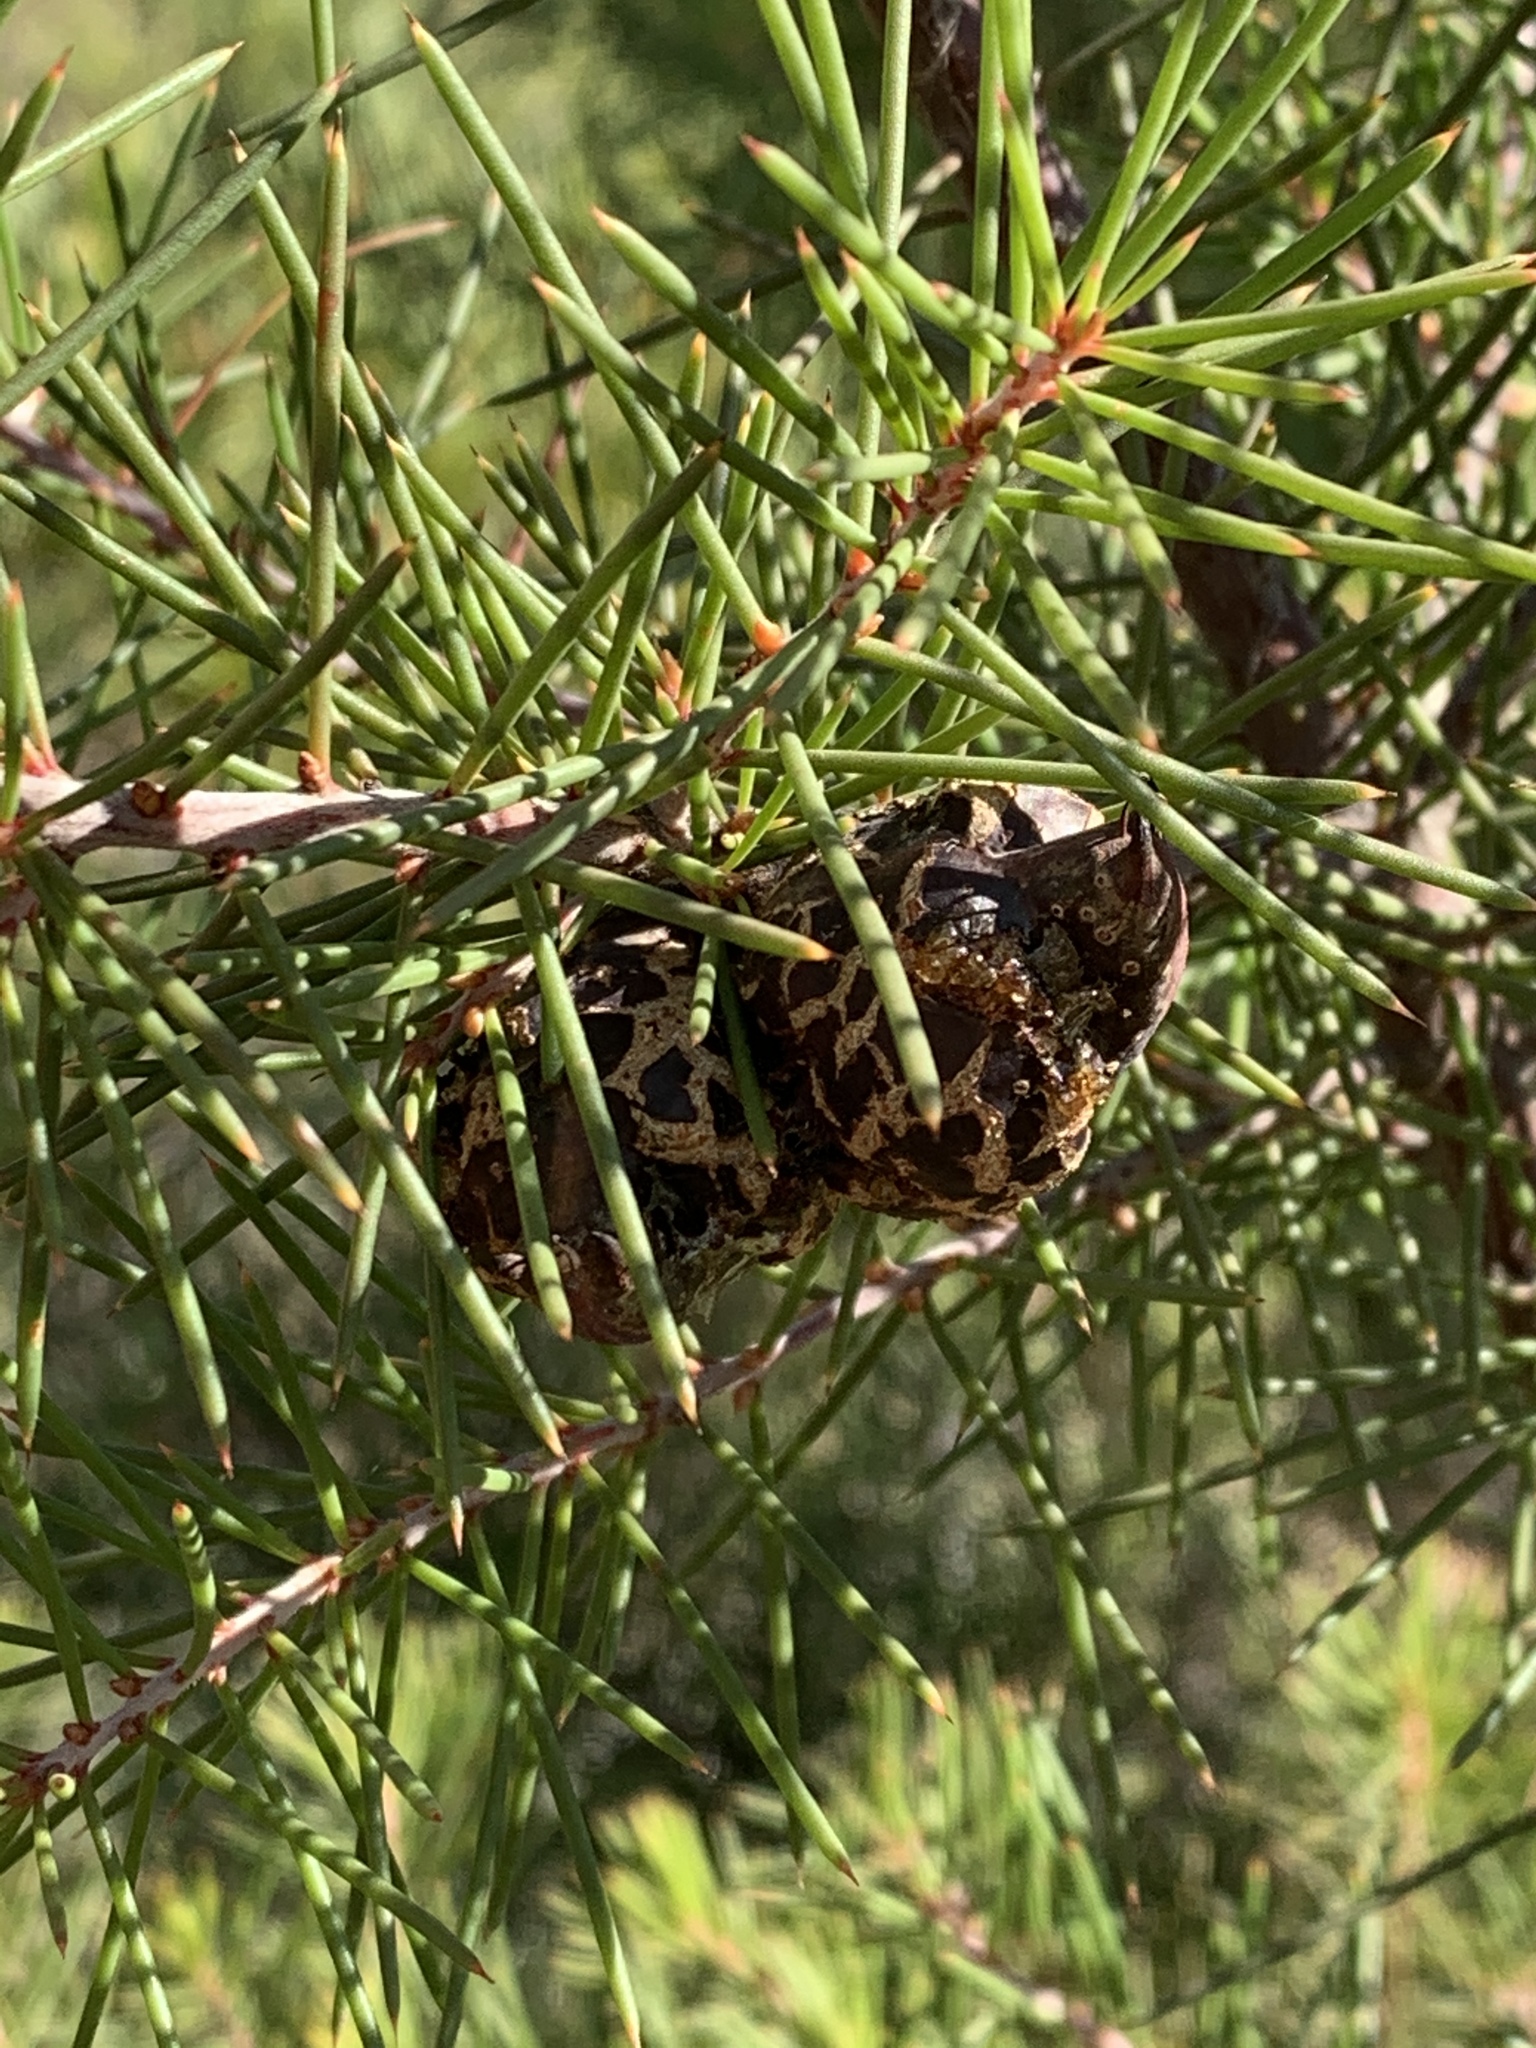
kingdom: Plantae
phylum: Tracheophyta
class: Magnoliopsida
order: Proteales
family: Proteaceae
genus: Hakea
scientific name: Hakea sericea
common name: Needle bush
